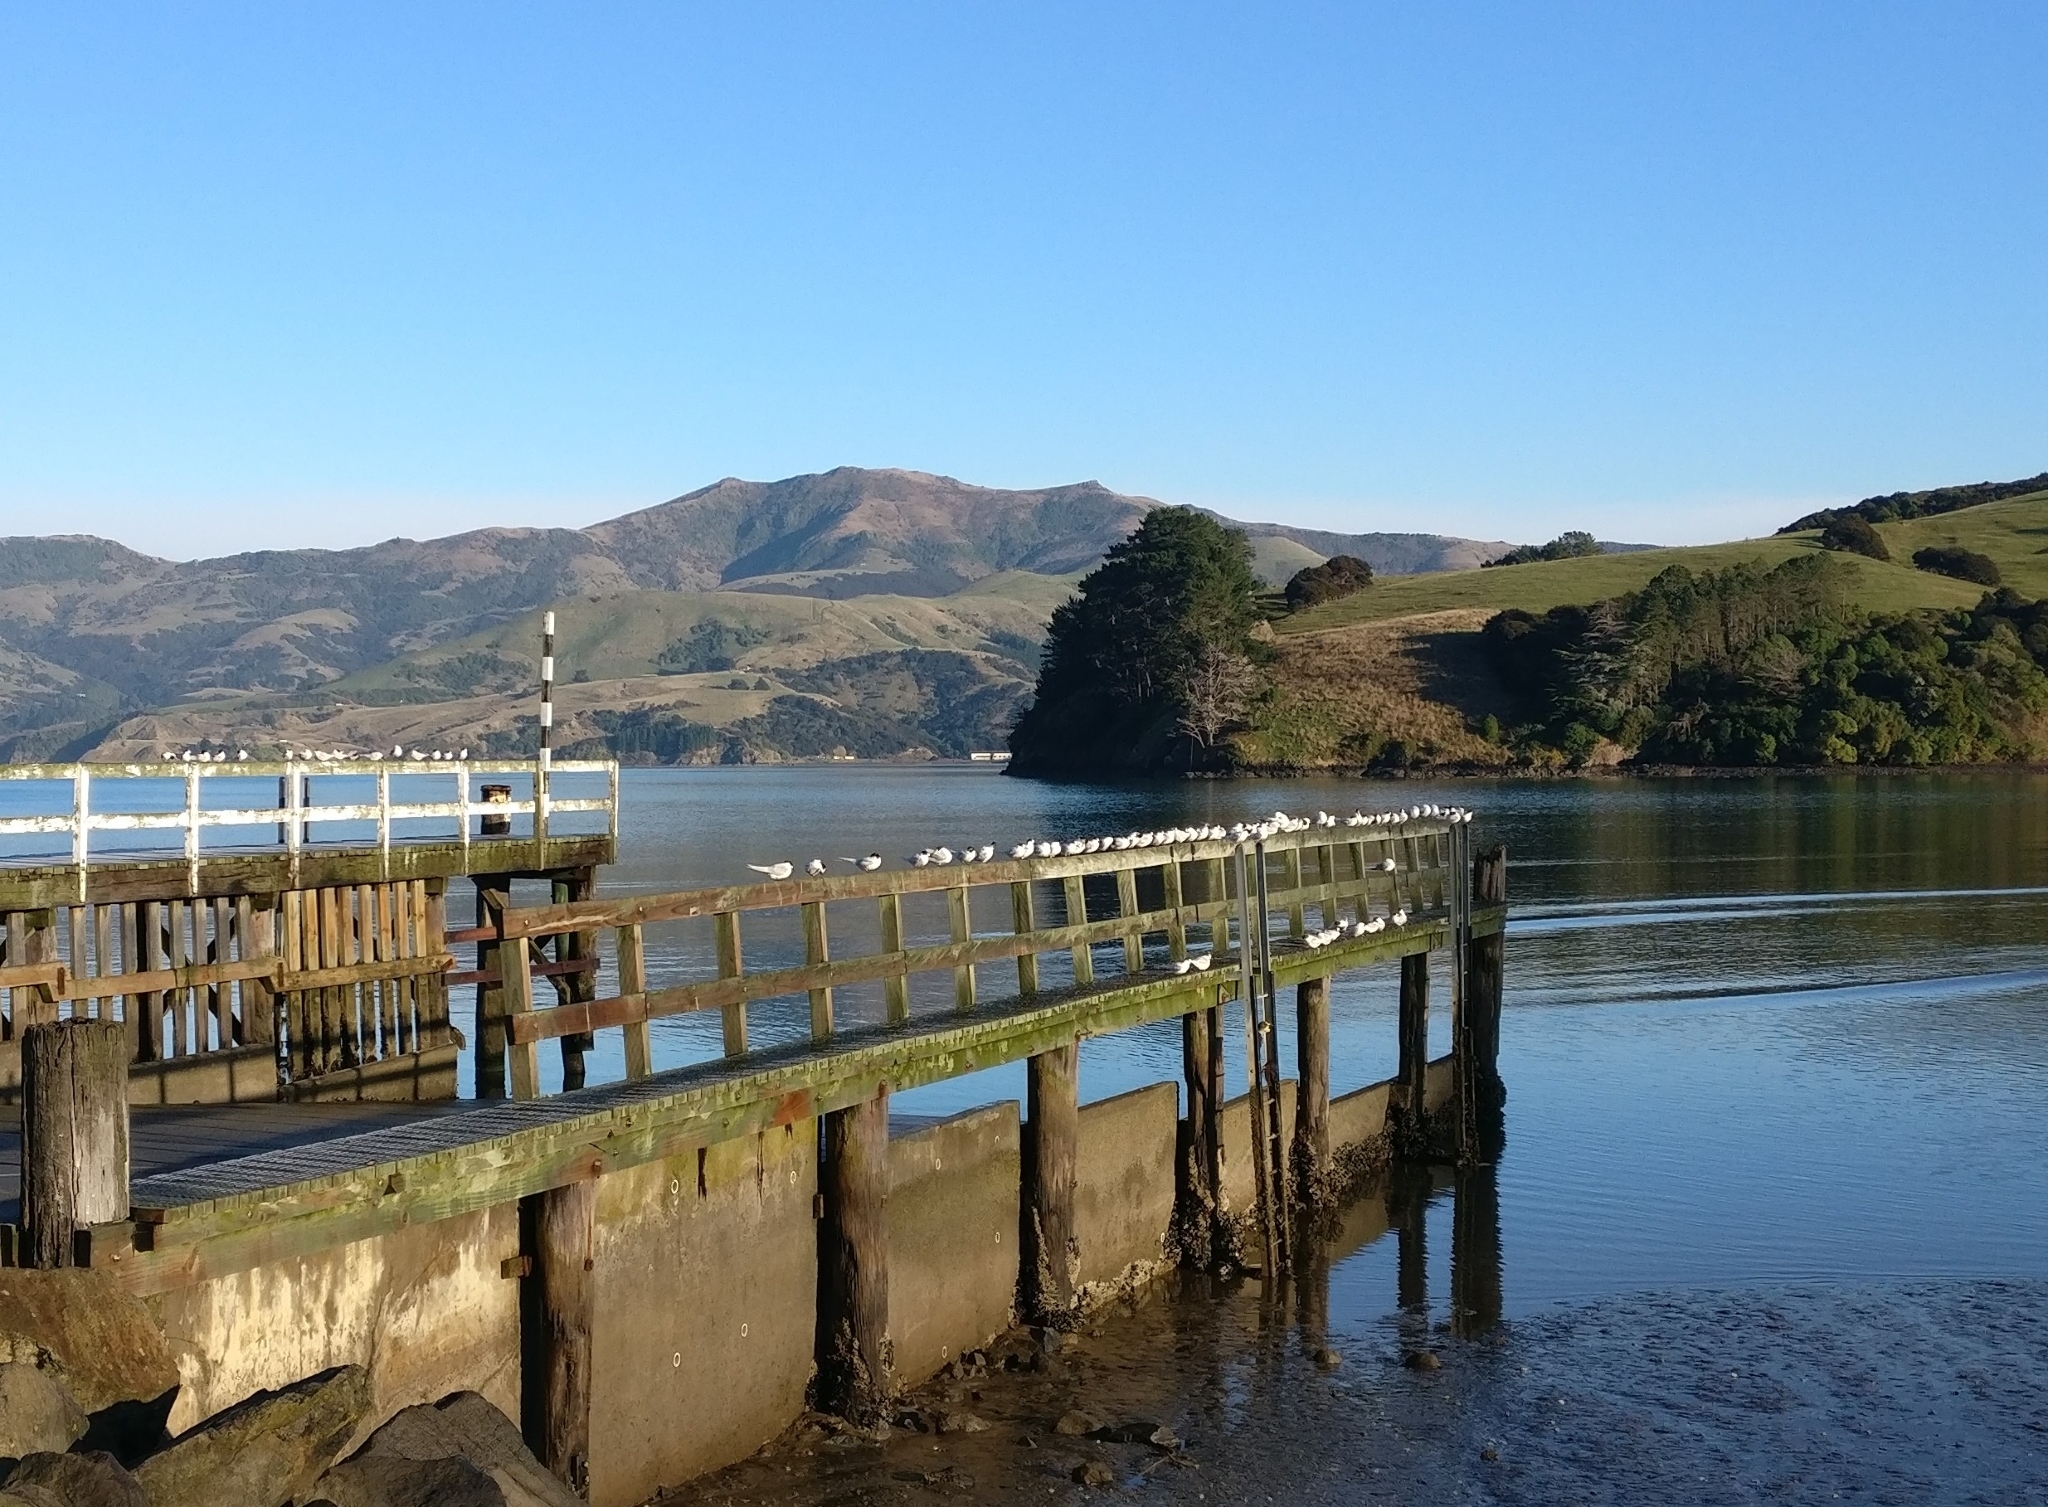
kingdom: Animalia
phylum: Chordata
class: Aves
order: Charadriiformes
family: Laridae
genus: Sterna
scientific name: Sterna striata
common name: White-fronted tern
